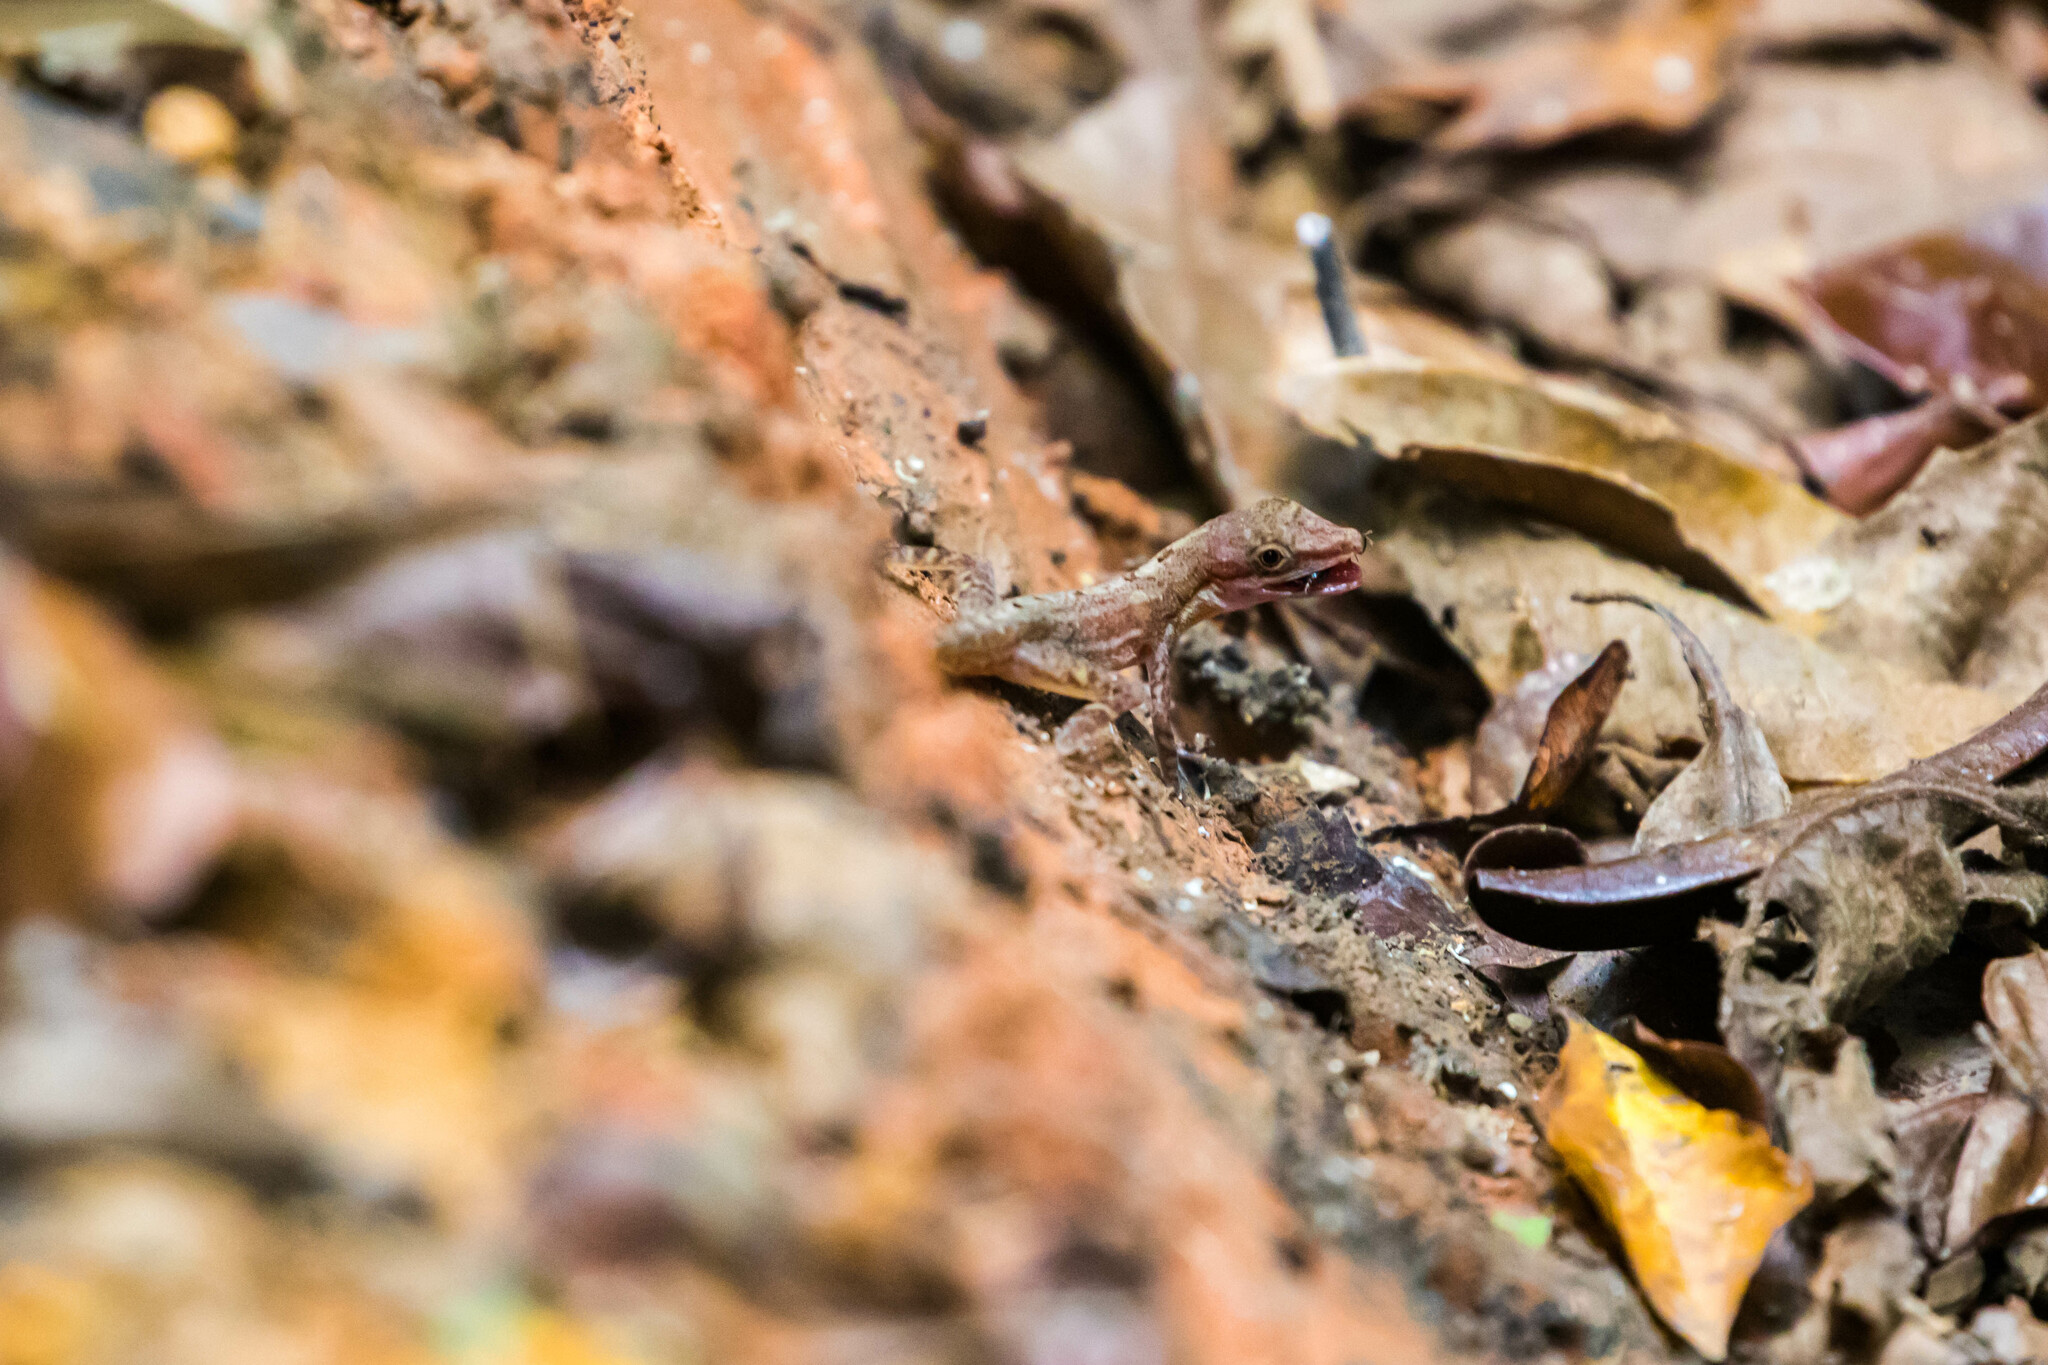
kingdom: Animalia
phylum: Chordata
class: Squamata
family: Dactyloidae
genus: Anolis
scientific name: Anolis limifrons
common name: Border anole
